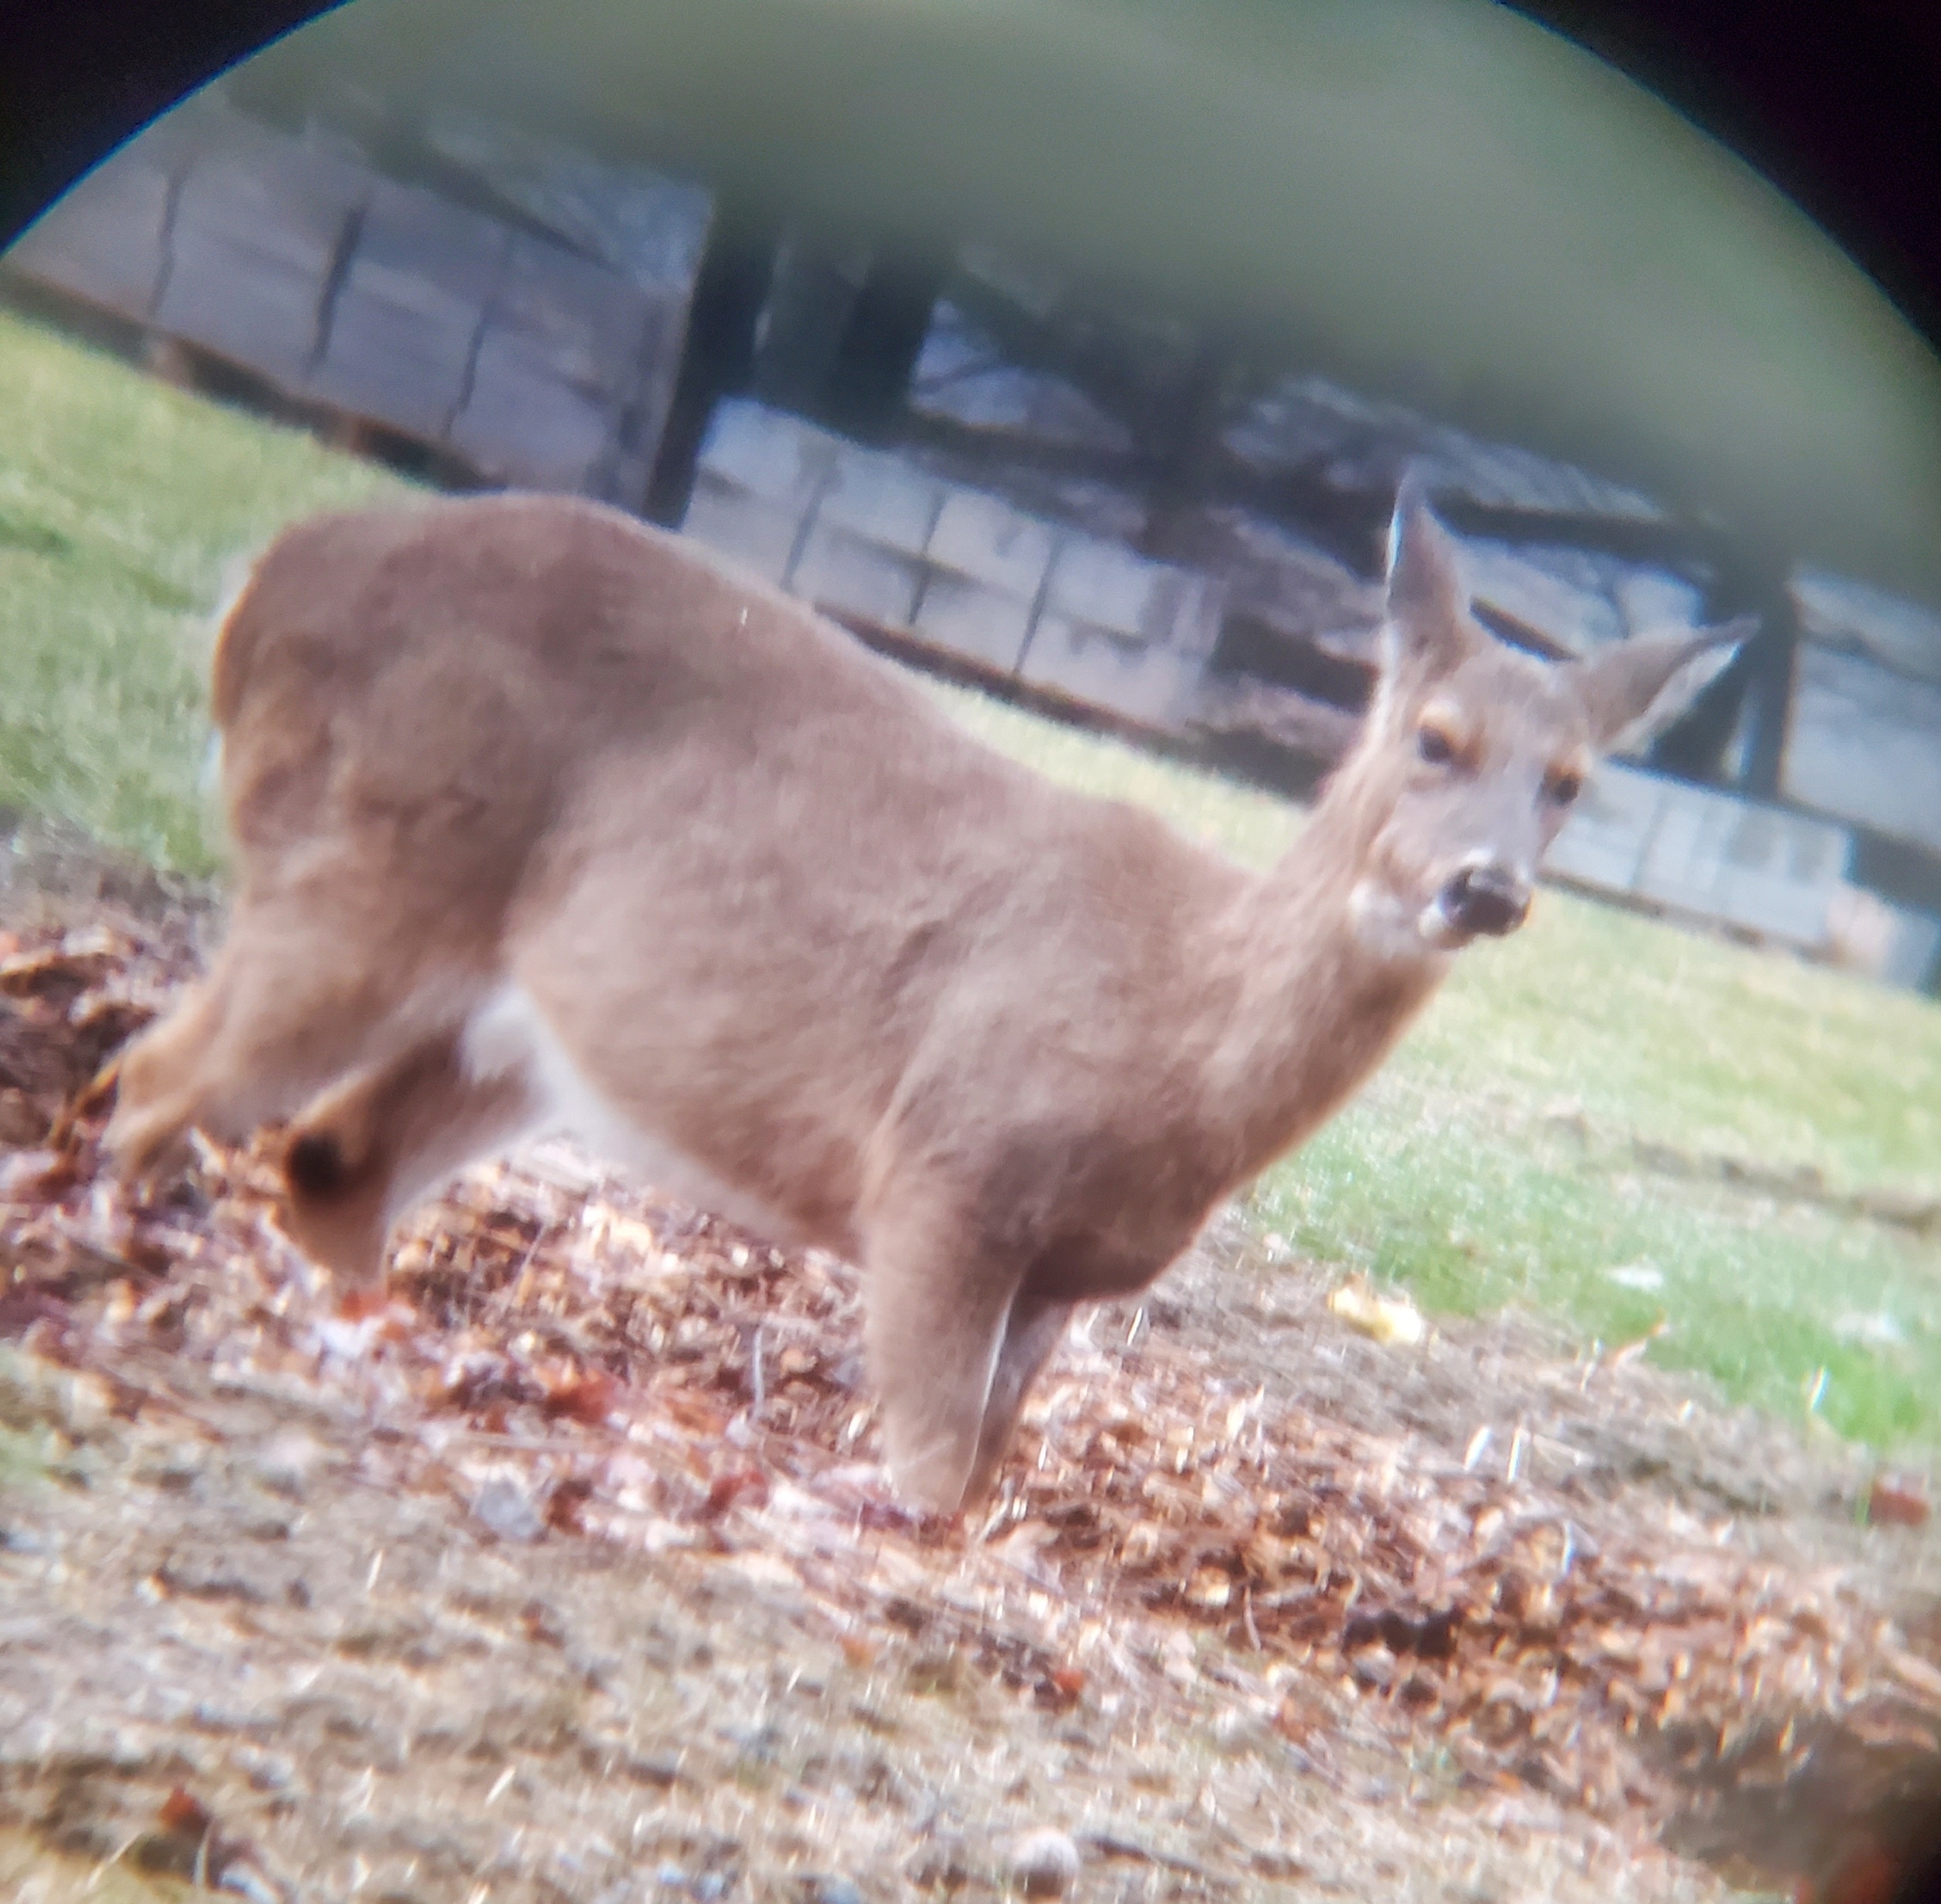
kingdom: Animalia
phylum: Chordata
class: Mammalia
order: Artiodactyla
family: Cervidae
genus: Odocoileus
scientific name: Odocoileus virginianus
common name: White-tailed deer
